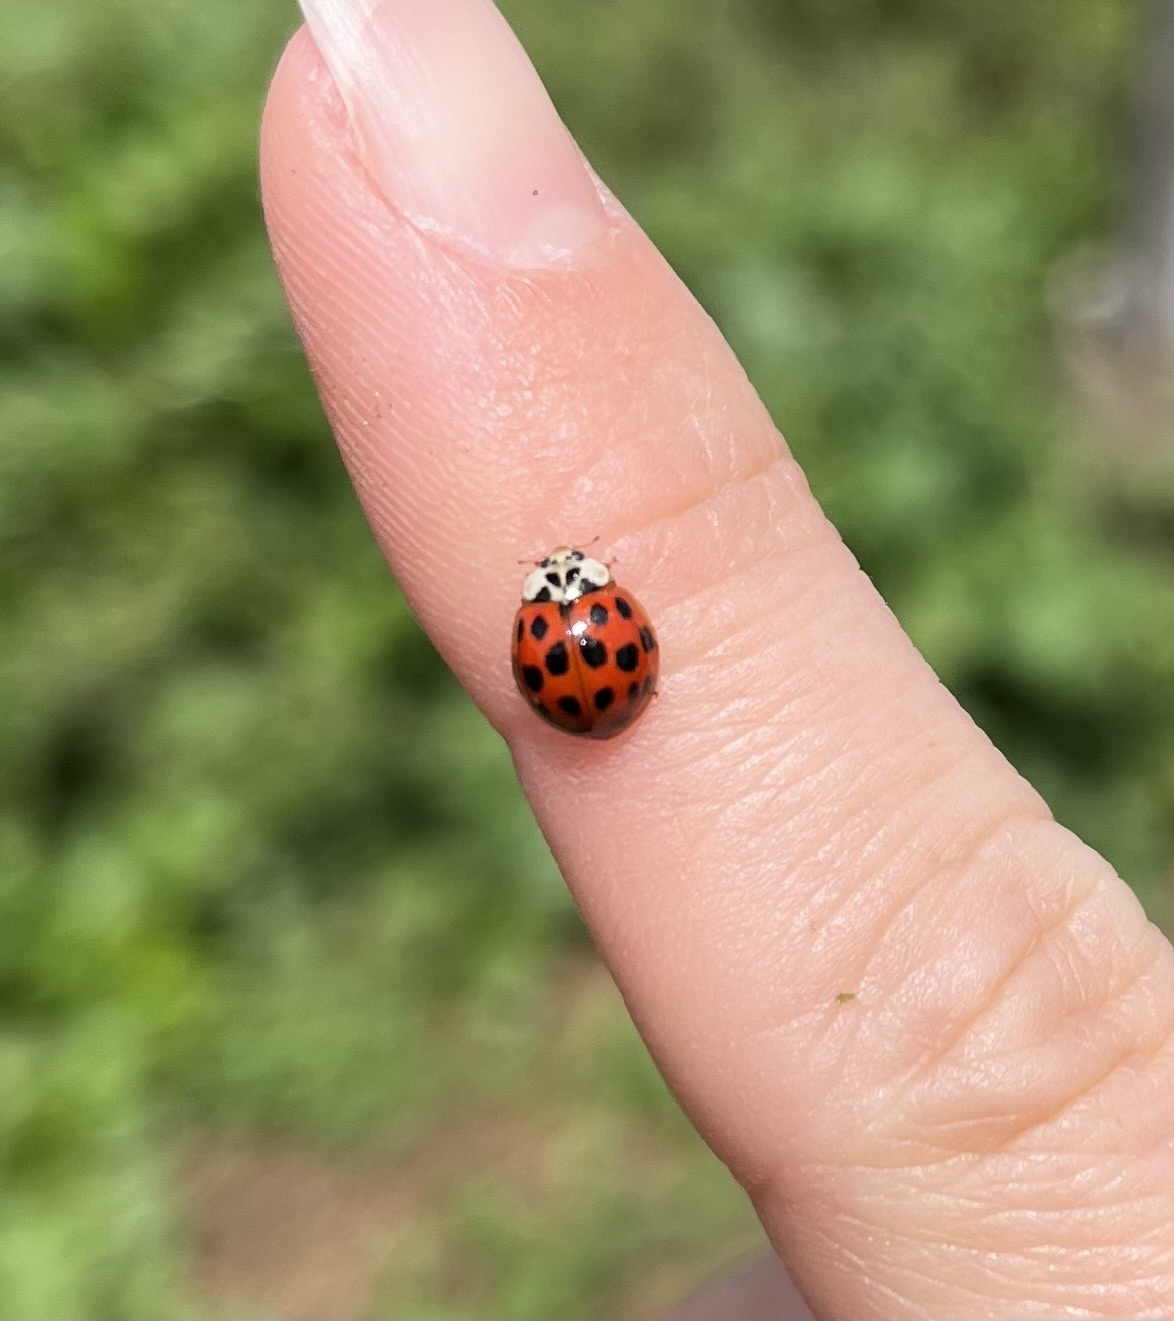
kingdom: Animalia
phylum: Arthropoda
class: Insecta
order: Coleoptera
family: Coccinellidae
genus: Harmonia
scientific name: Harmonia axyridis
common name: Harlequin ladybird
